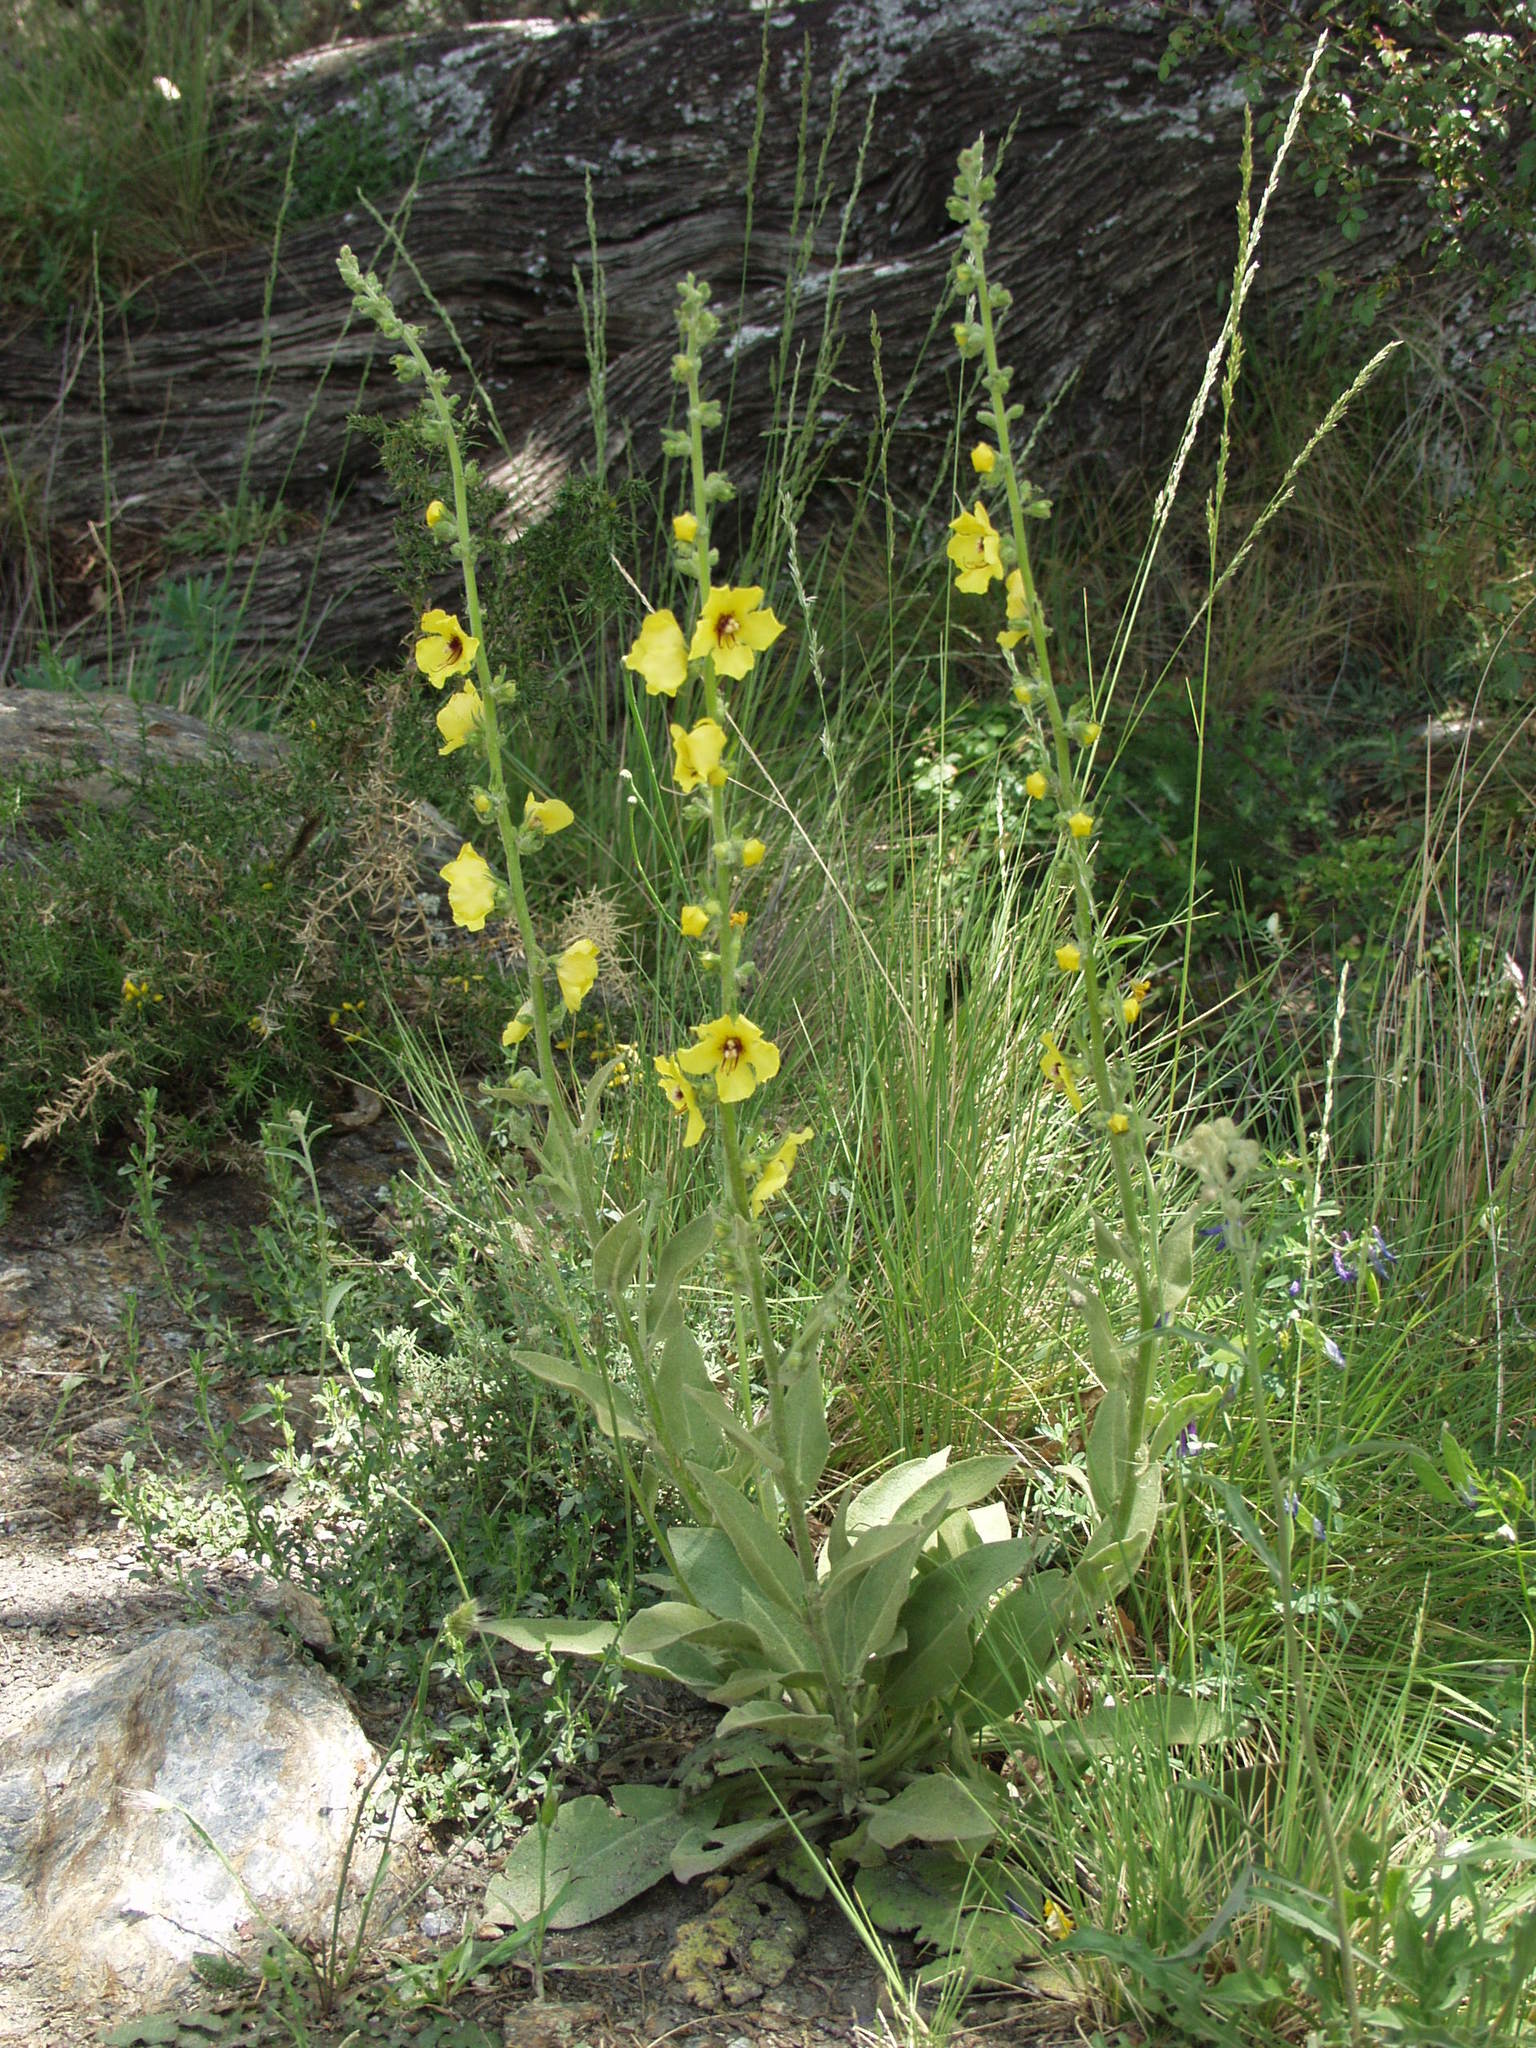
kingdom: Plantae
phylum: Tracheophyta
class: Magnoliopsida
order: Lamiales
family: Scrophulariaceae
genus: Verbascum
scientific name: Verbascum dentifolium
